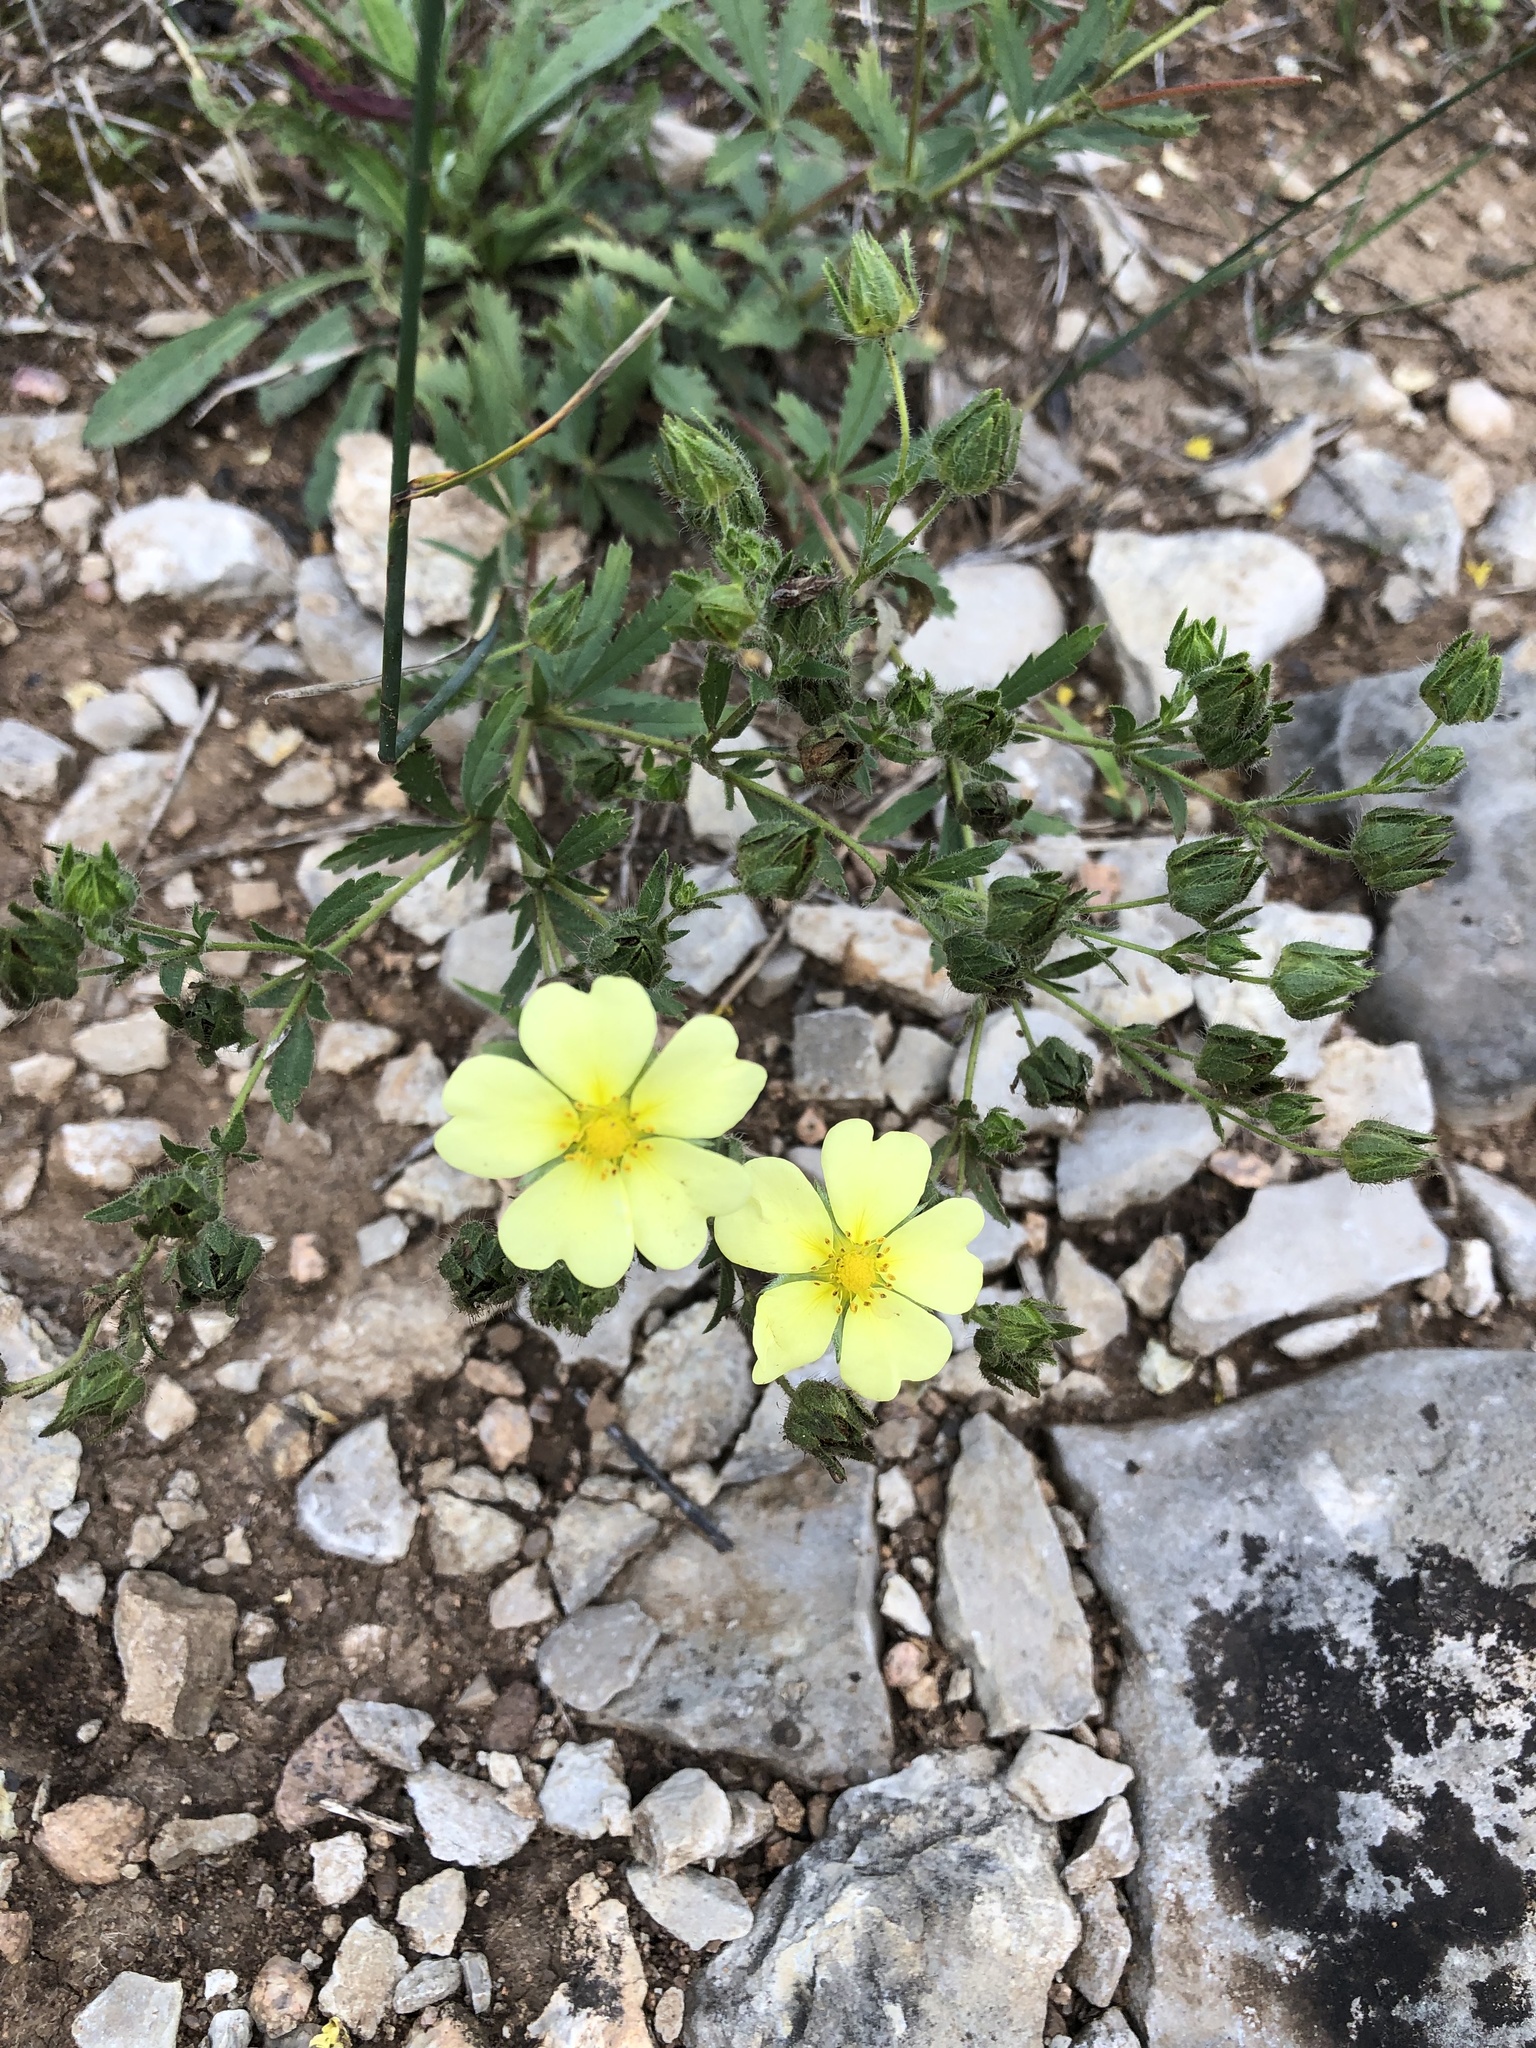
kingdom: Plantae
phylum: Tracheophyta
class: Magnoliopsida
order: Rosales
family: Rosaceae
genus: Potentilla
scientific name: Potentilla recta
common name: Sulphur cinquefoil
